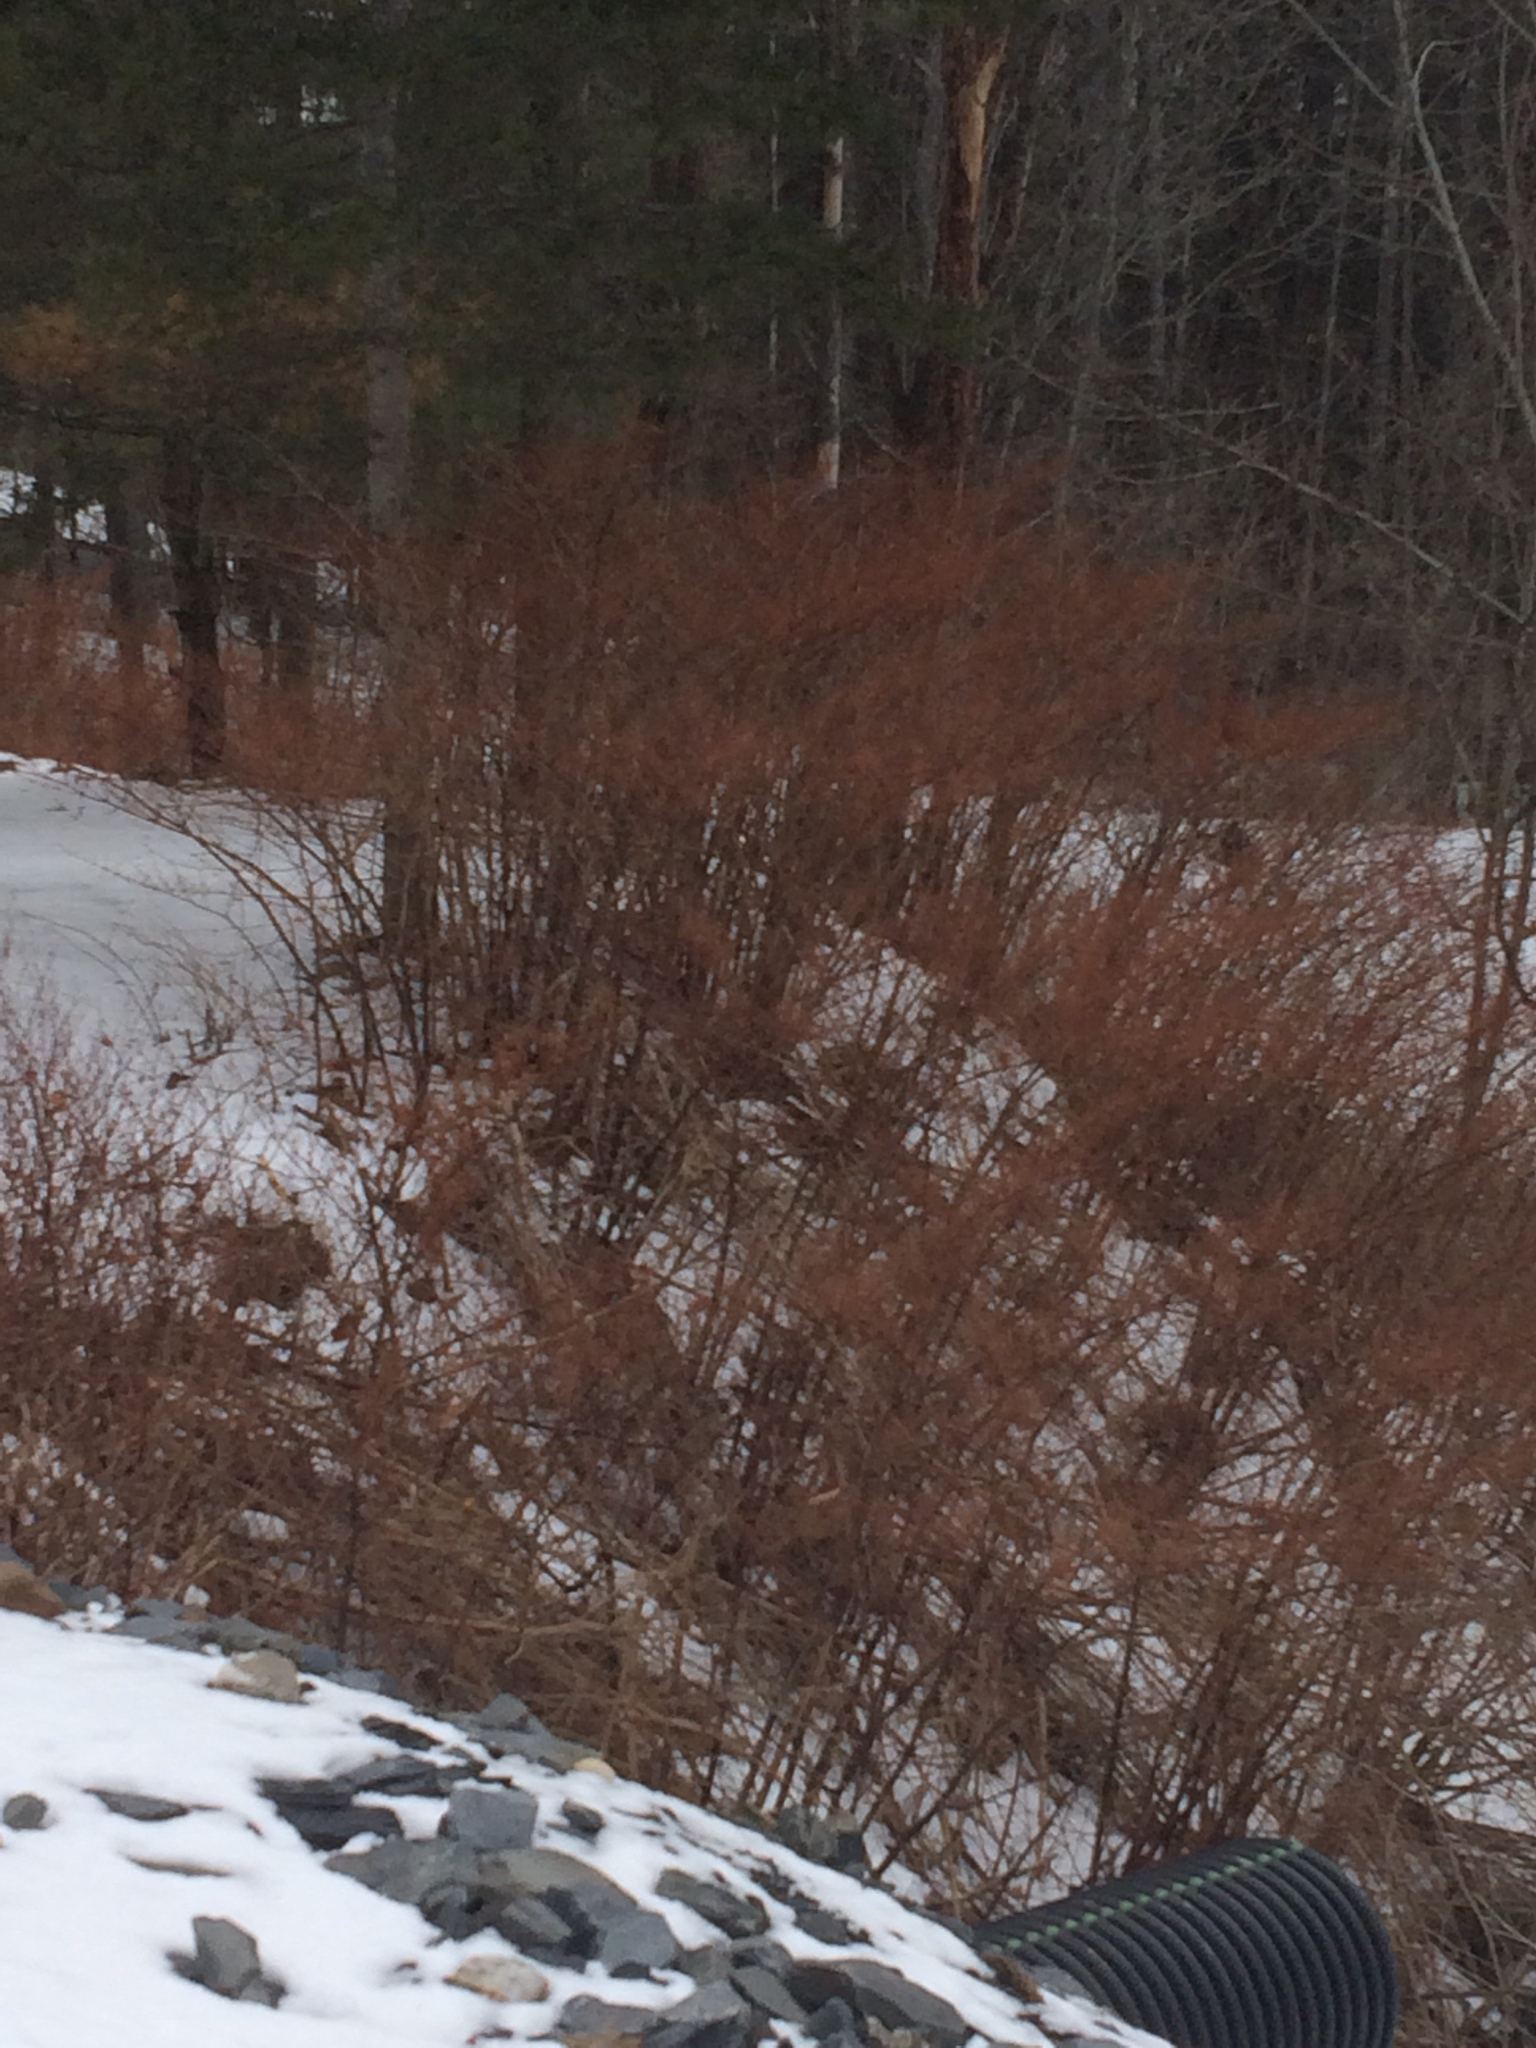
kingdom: Plantae
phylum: Tracheophyta
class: Magnoliopsida
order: Caryophyllales
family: Polygonaceae
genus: Reynoutria
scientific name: Reynoutria japonica
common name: Japanese knotweed
